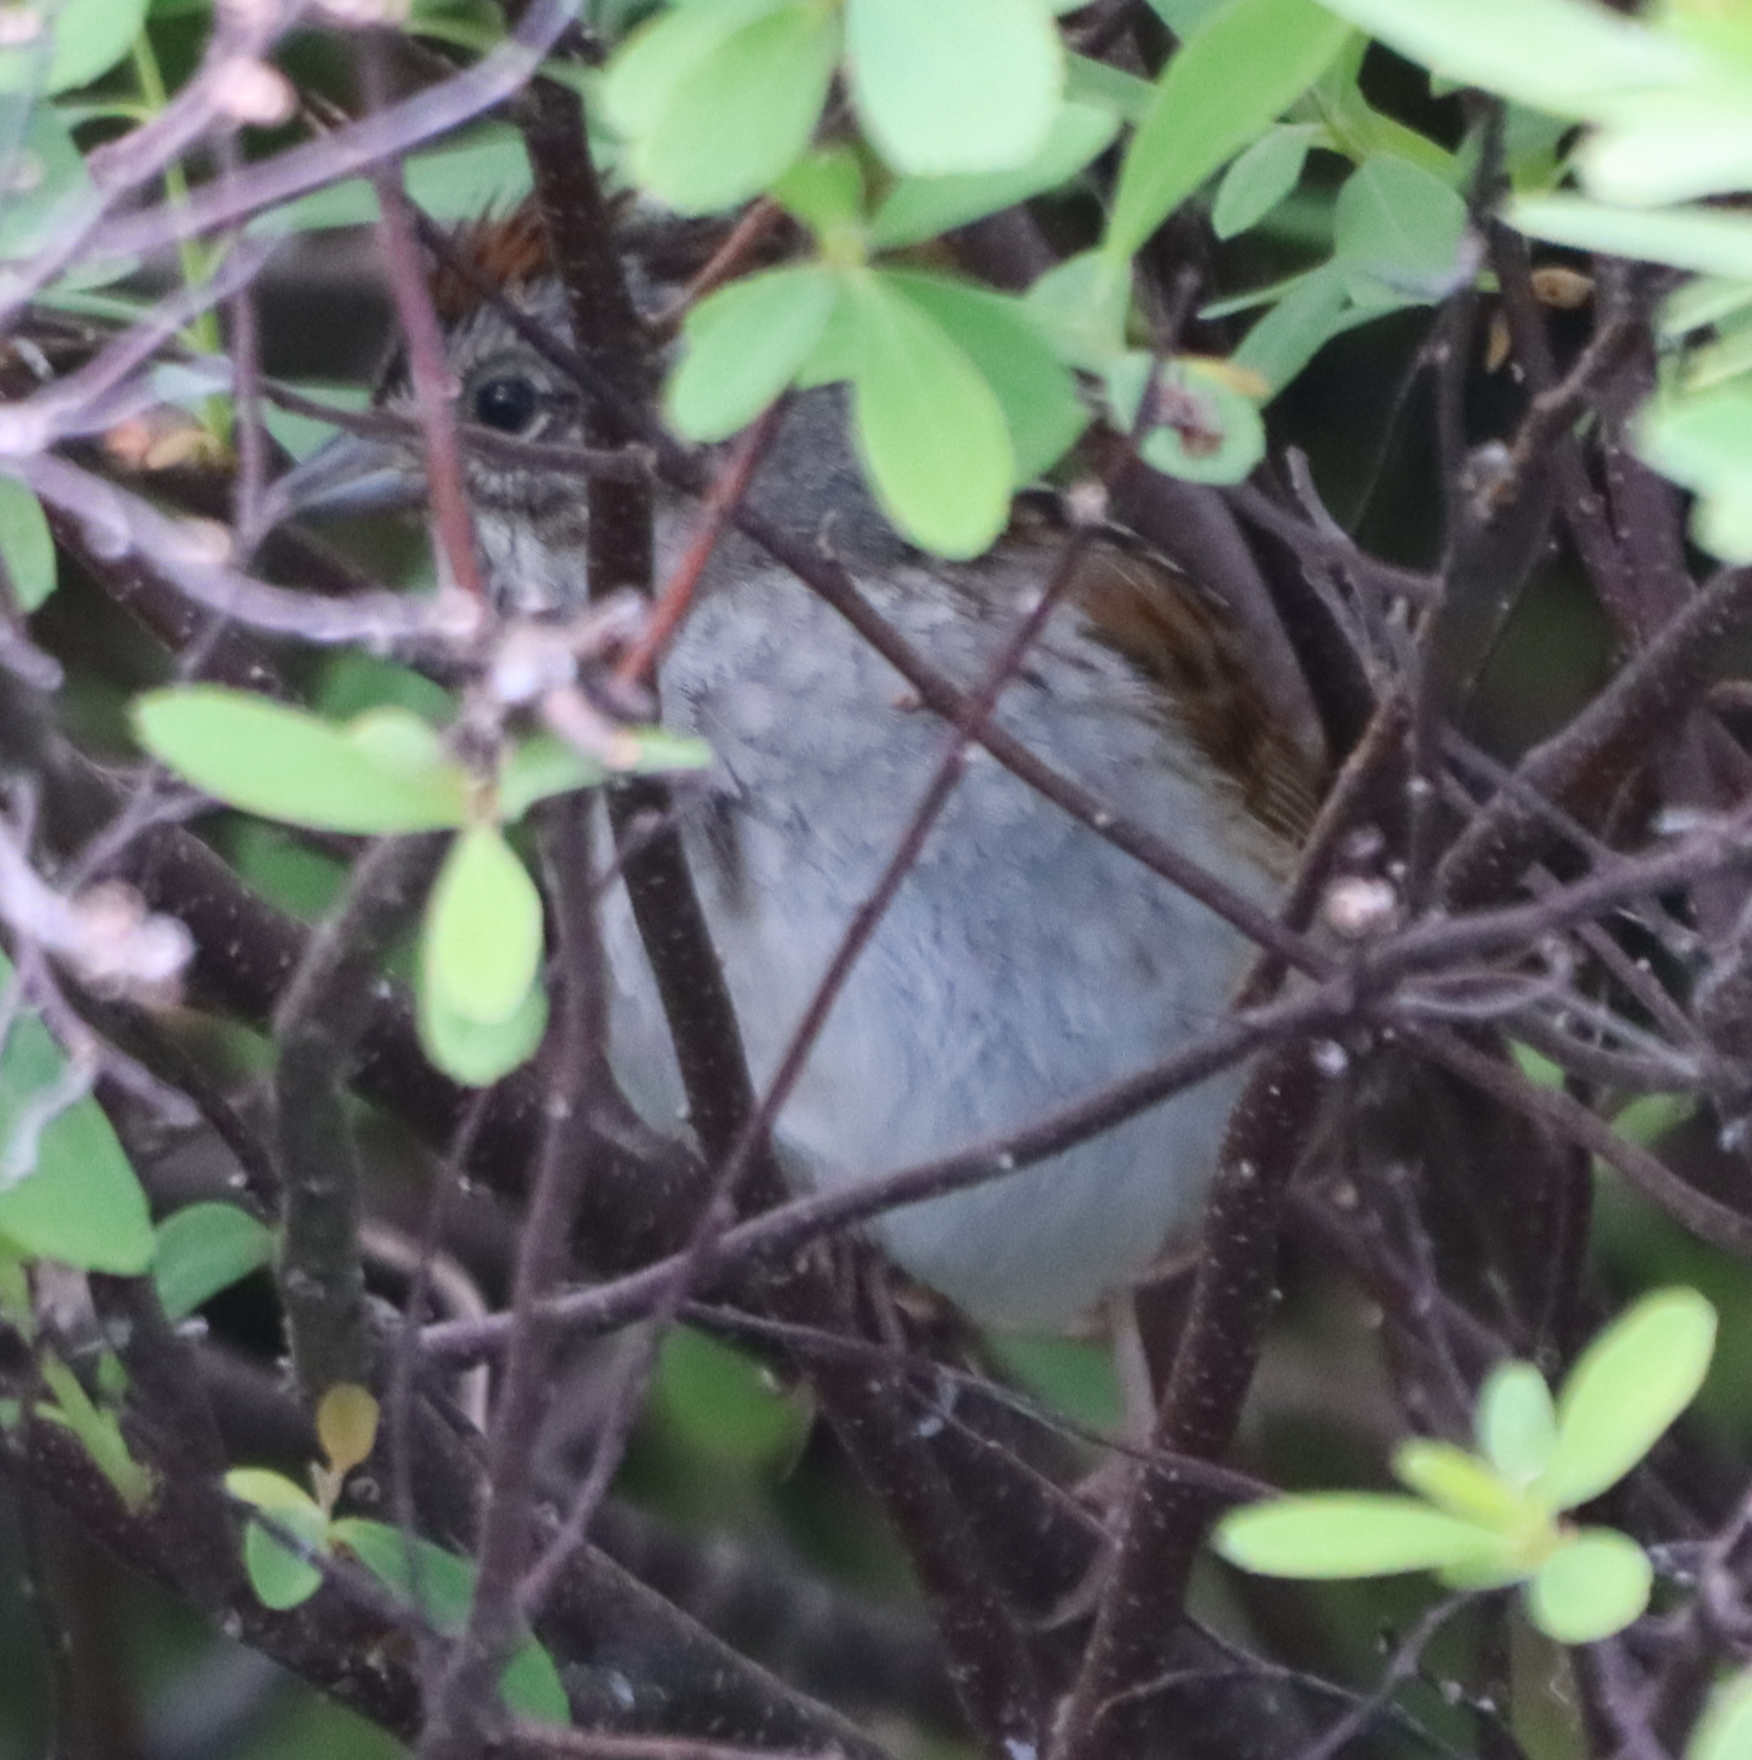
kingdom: Animalia
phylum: Chordata
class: Aves
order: Passeriformes
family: Passerellidae
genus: Melospiza
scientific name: Melospiza georgiana
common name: Swamp sparrow
